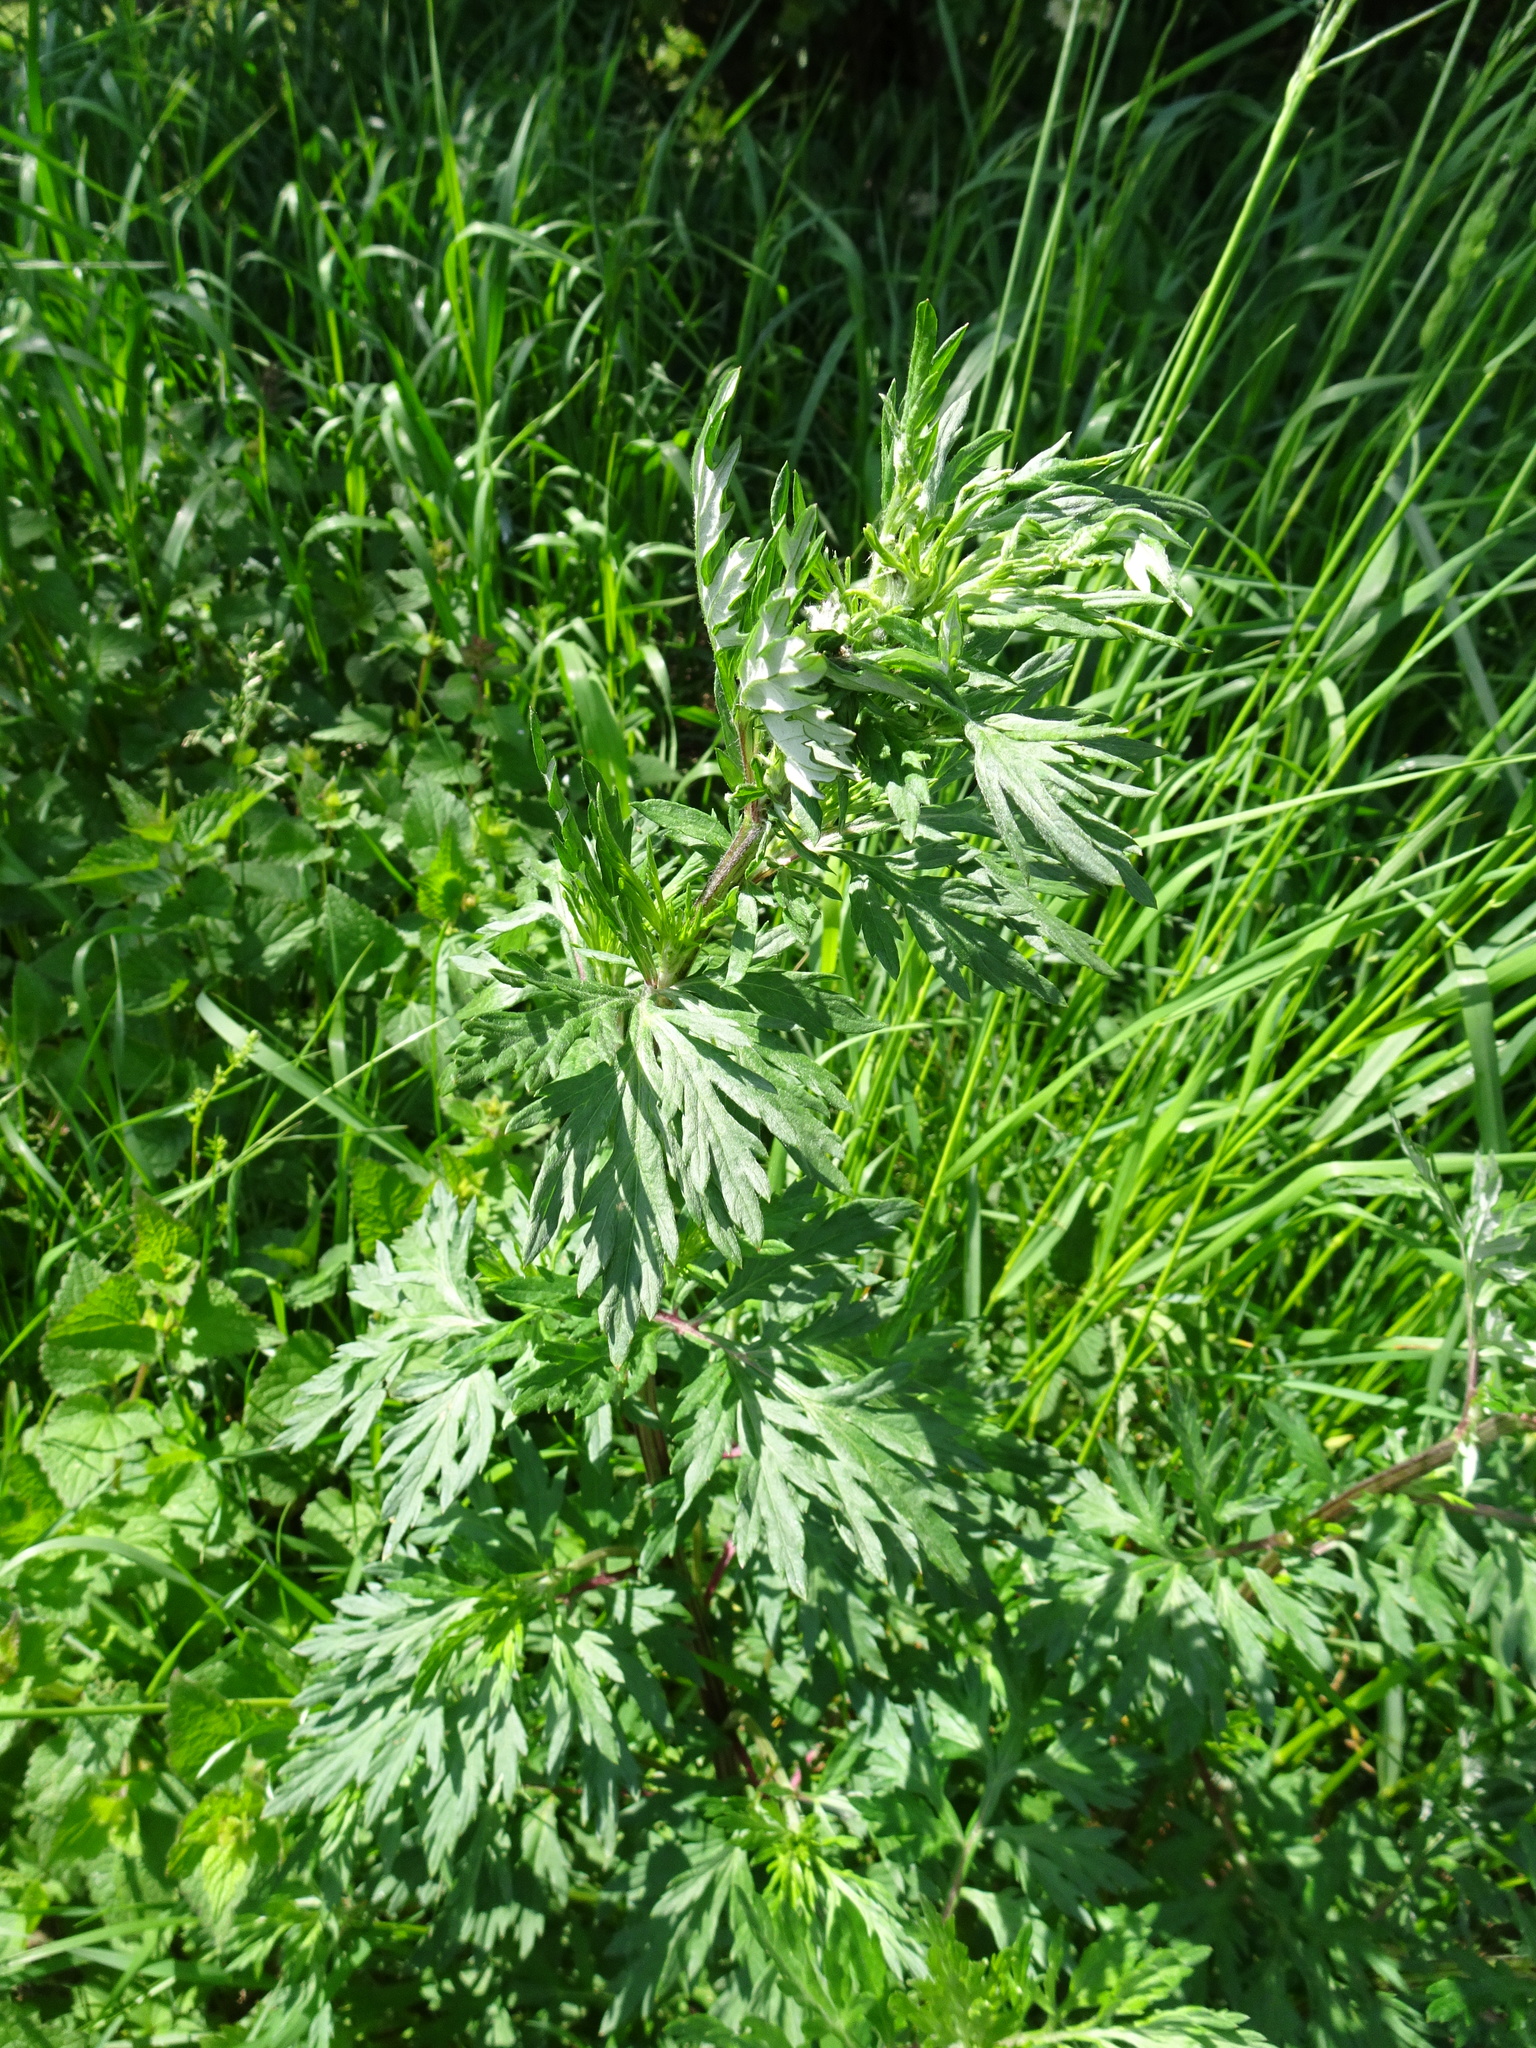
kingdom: Plantae
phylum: Tracheophyta
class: Magnoliopsida
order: Asterales
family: Asteraceae
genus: Artemisia
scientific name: Artemisia vulgaris
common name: Mugwort
